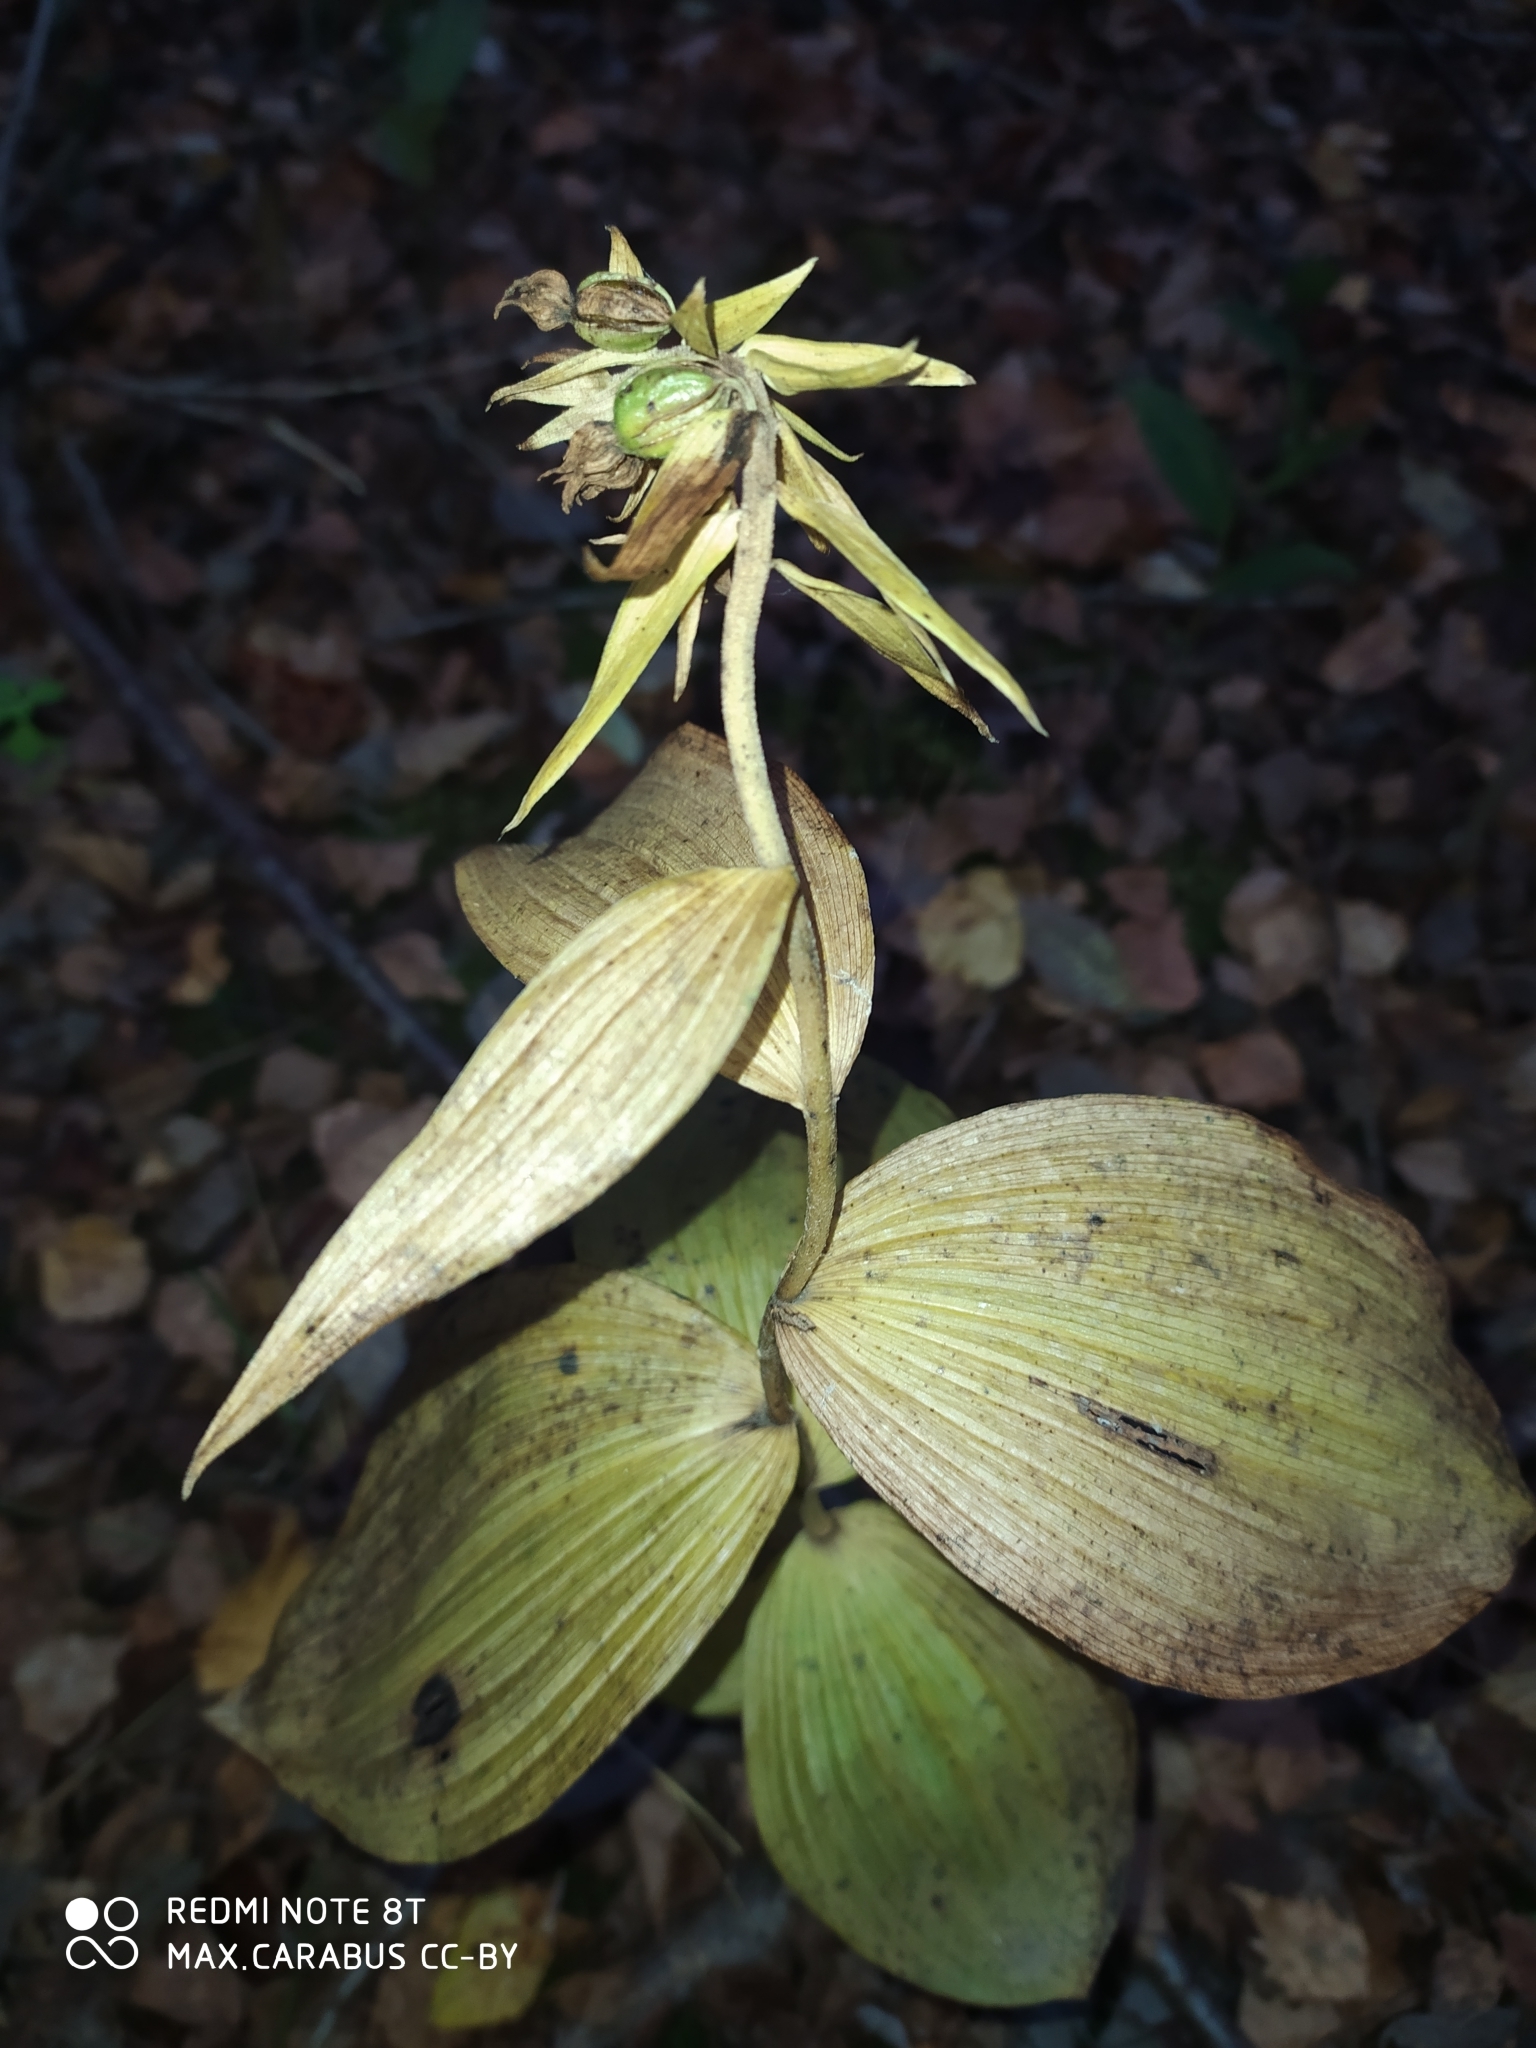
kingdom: Plantae
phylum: Tracheophyta
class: Liliopsida
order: Asparagales
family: Orchidaceae
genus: Epipactis
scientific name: Epipactis helleborine
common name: Broad-leaved helleborine
